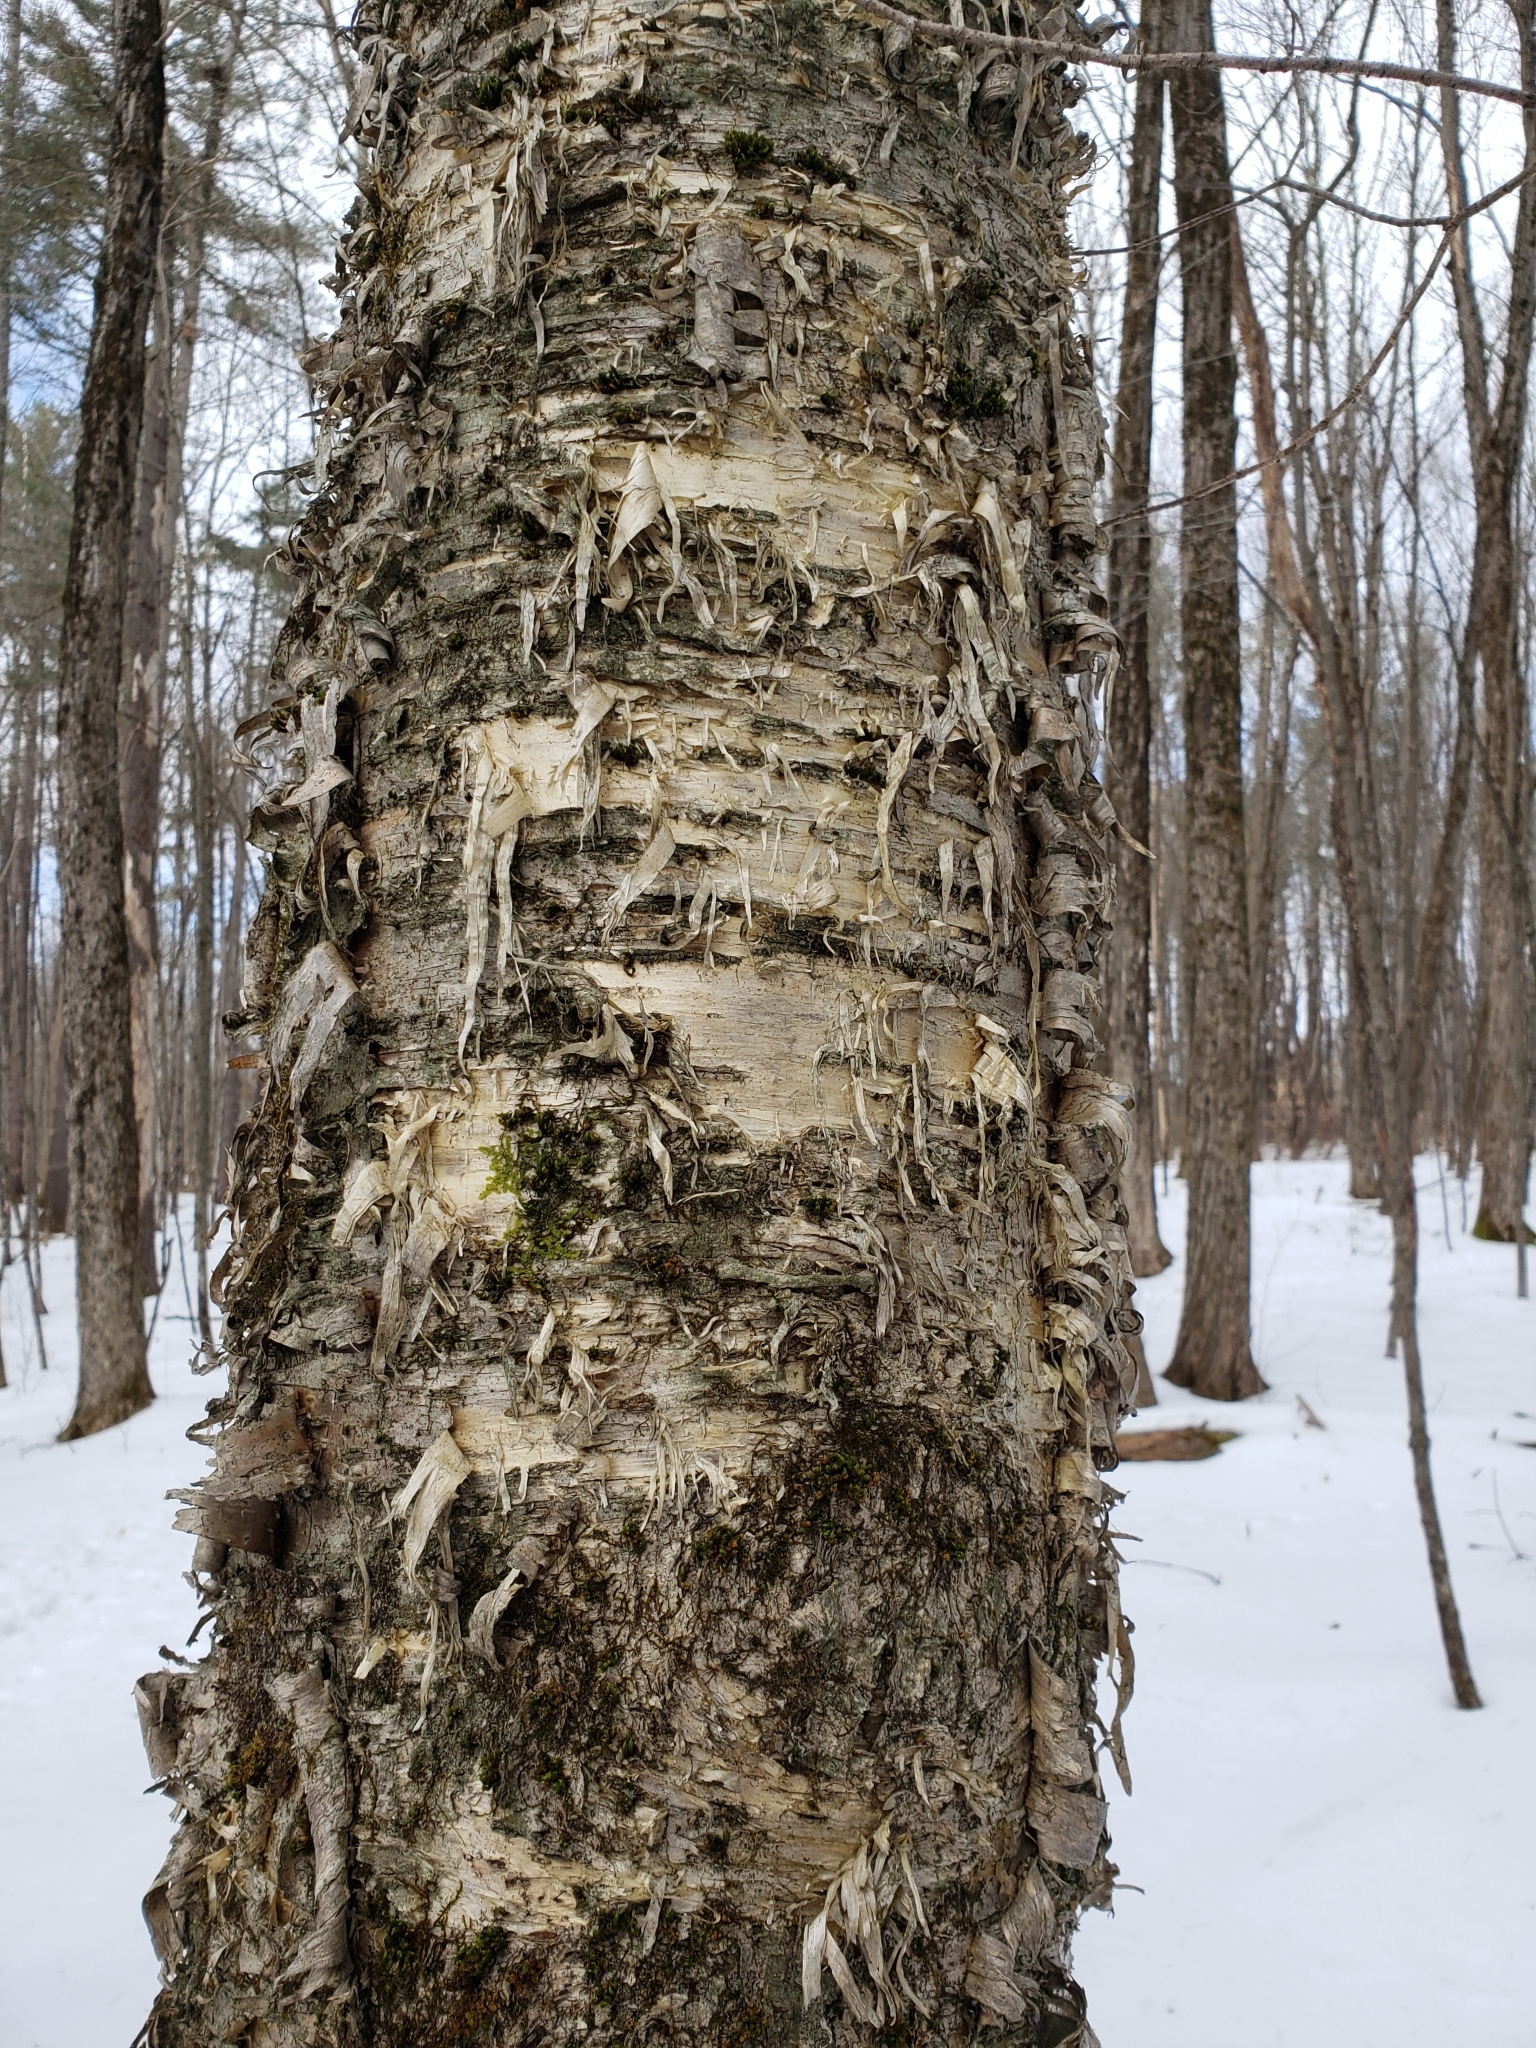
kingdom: Plantae
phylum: Tracheophyta
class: Magnoliopsida
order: Fagales
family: Betulaceae
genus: Betula
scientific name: Betula alleghaniensis
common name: Yellow birch
